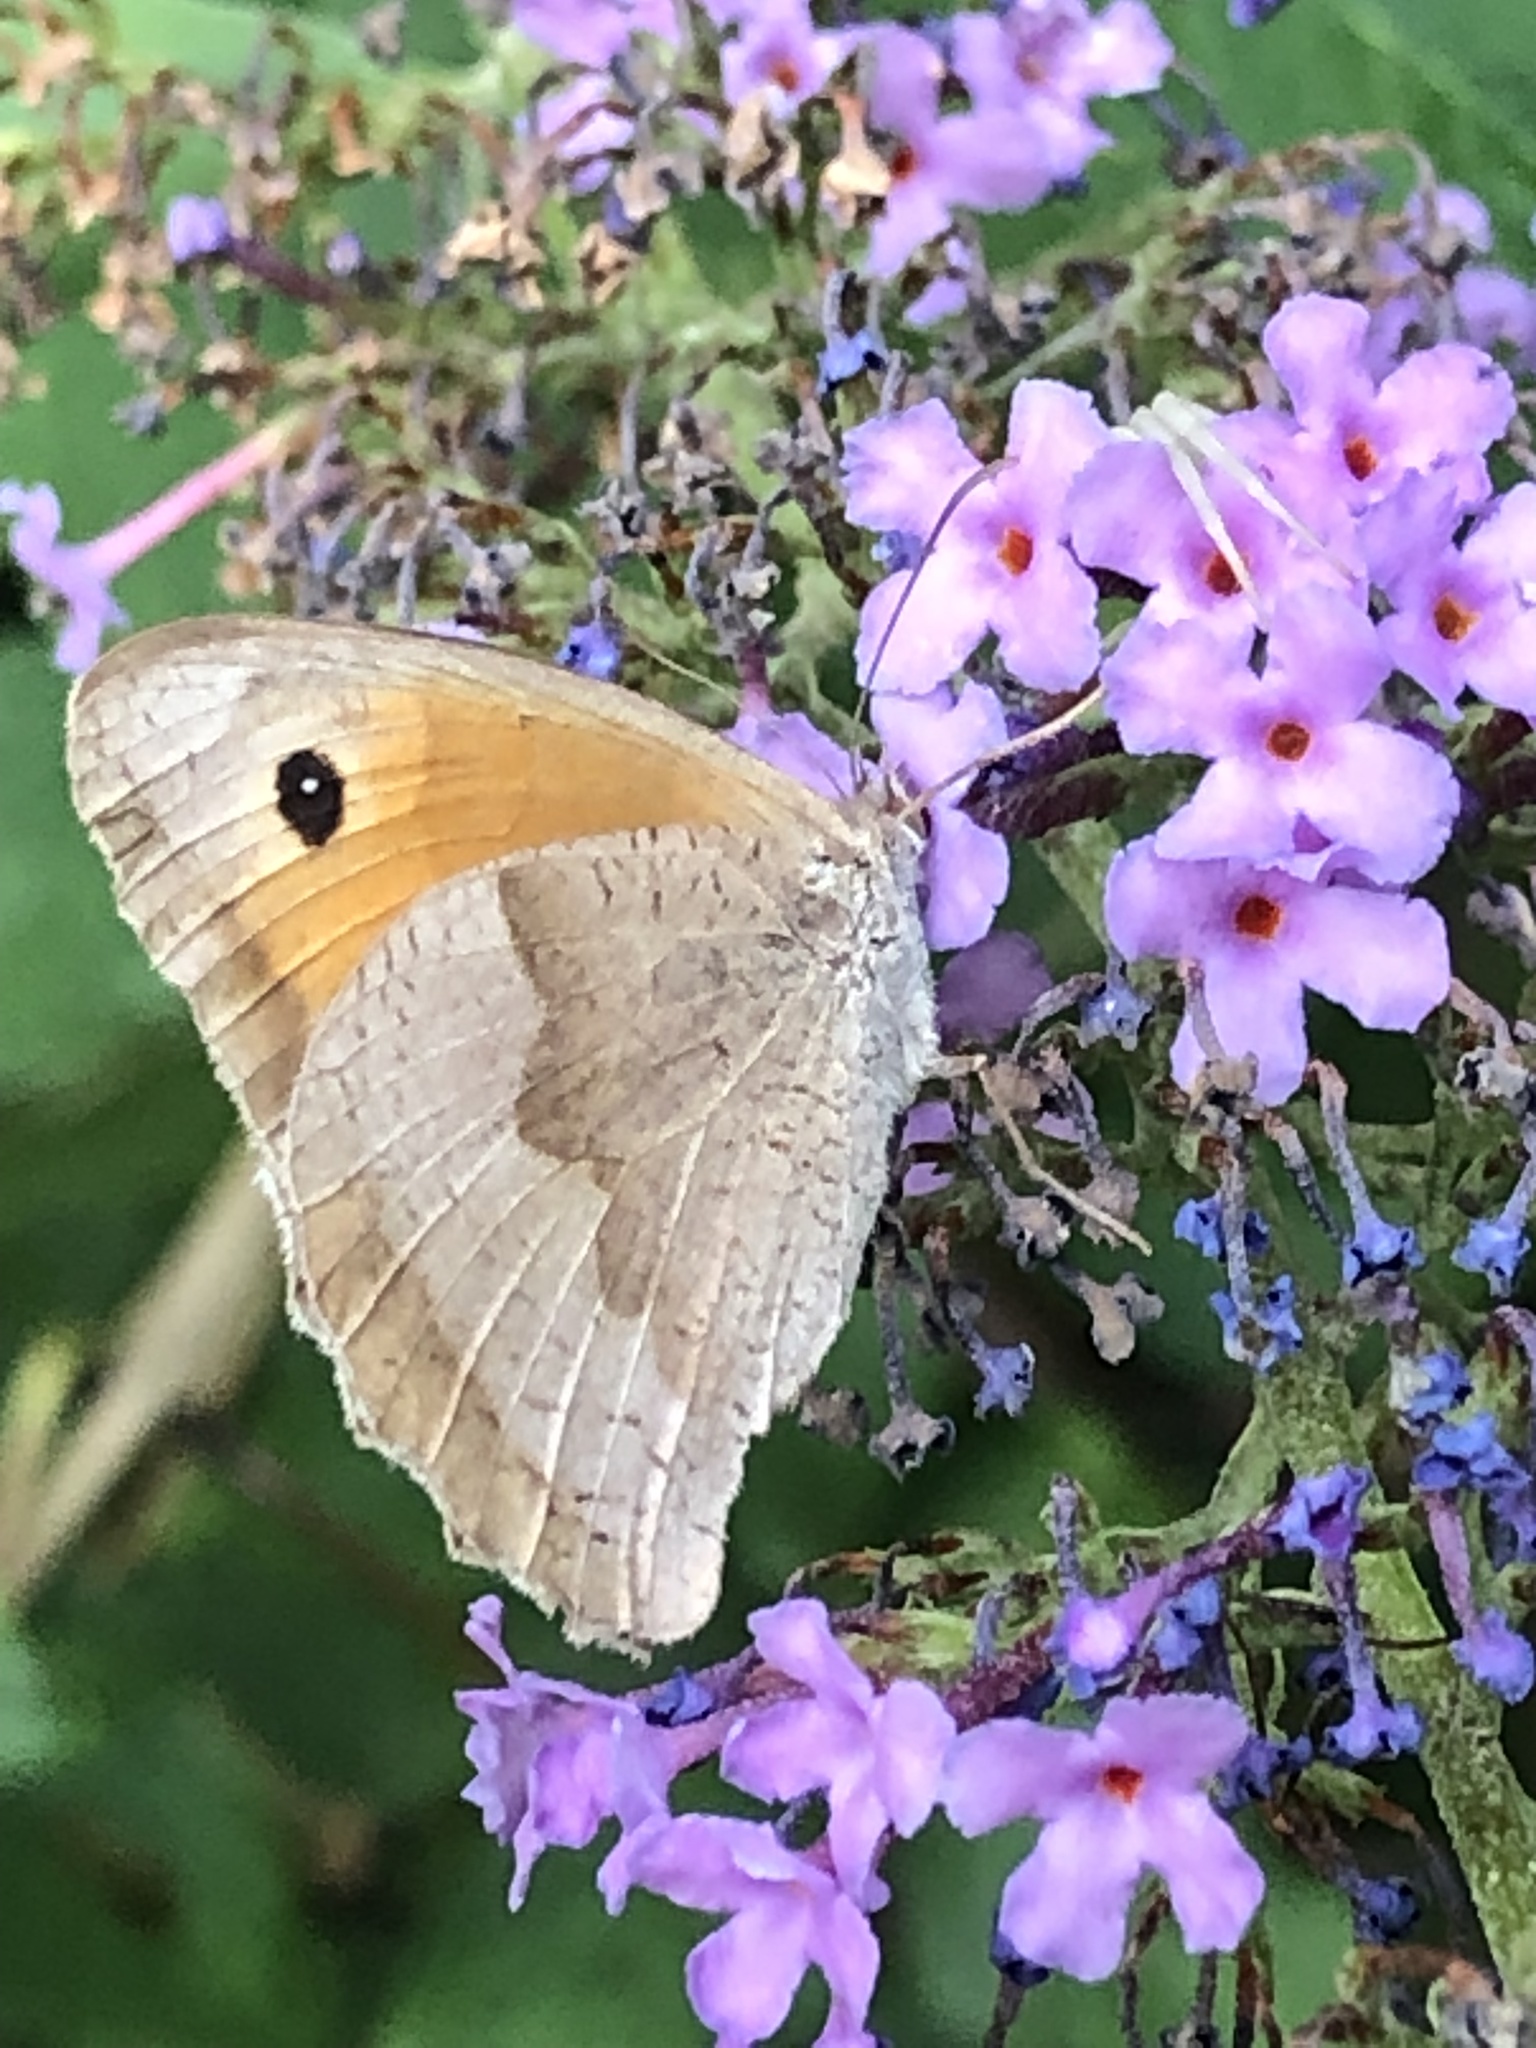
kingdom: Animalia
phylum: Arthropoda
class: Insecta
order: Lepidoptera
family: Nymphalidae
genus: Maniola
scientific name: Maniola jurtina
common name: Meadow brown
